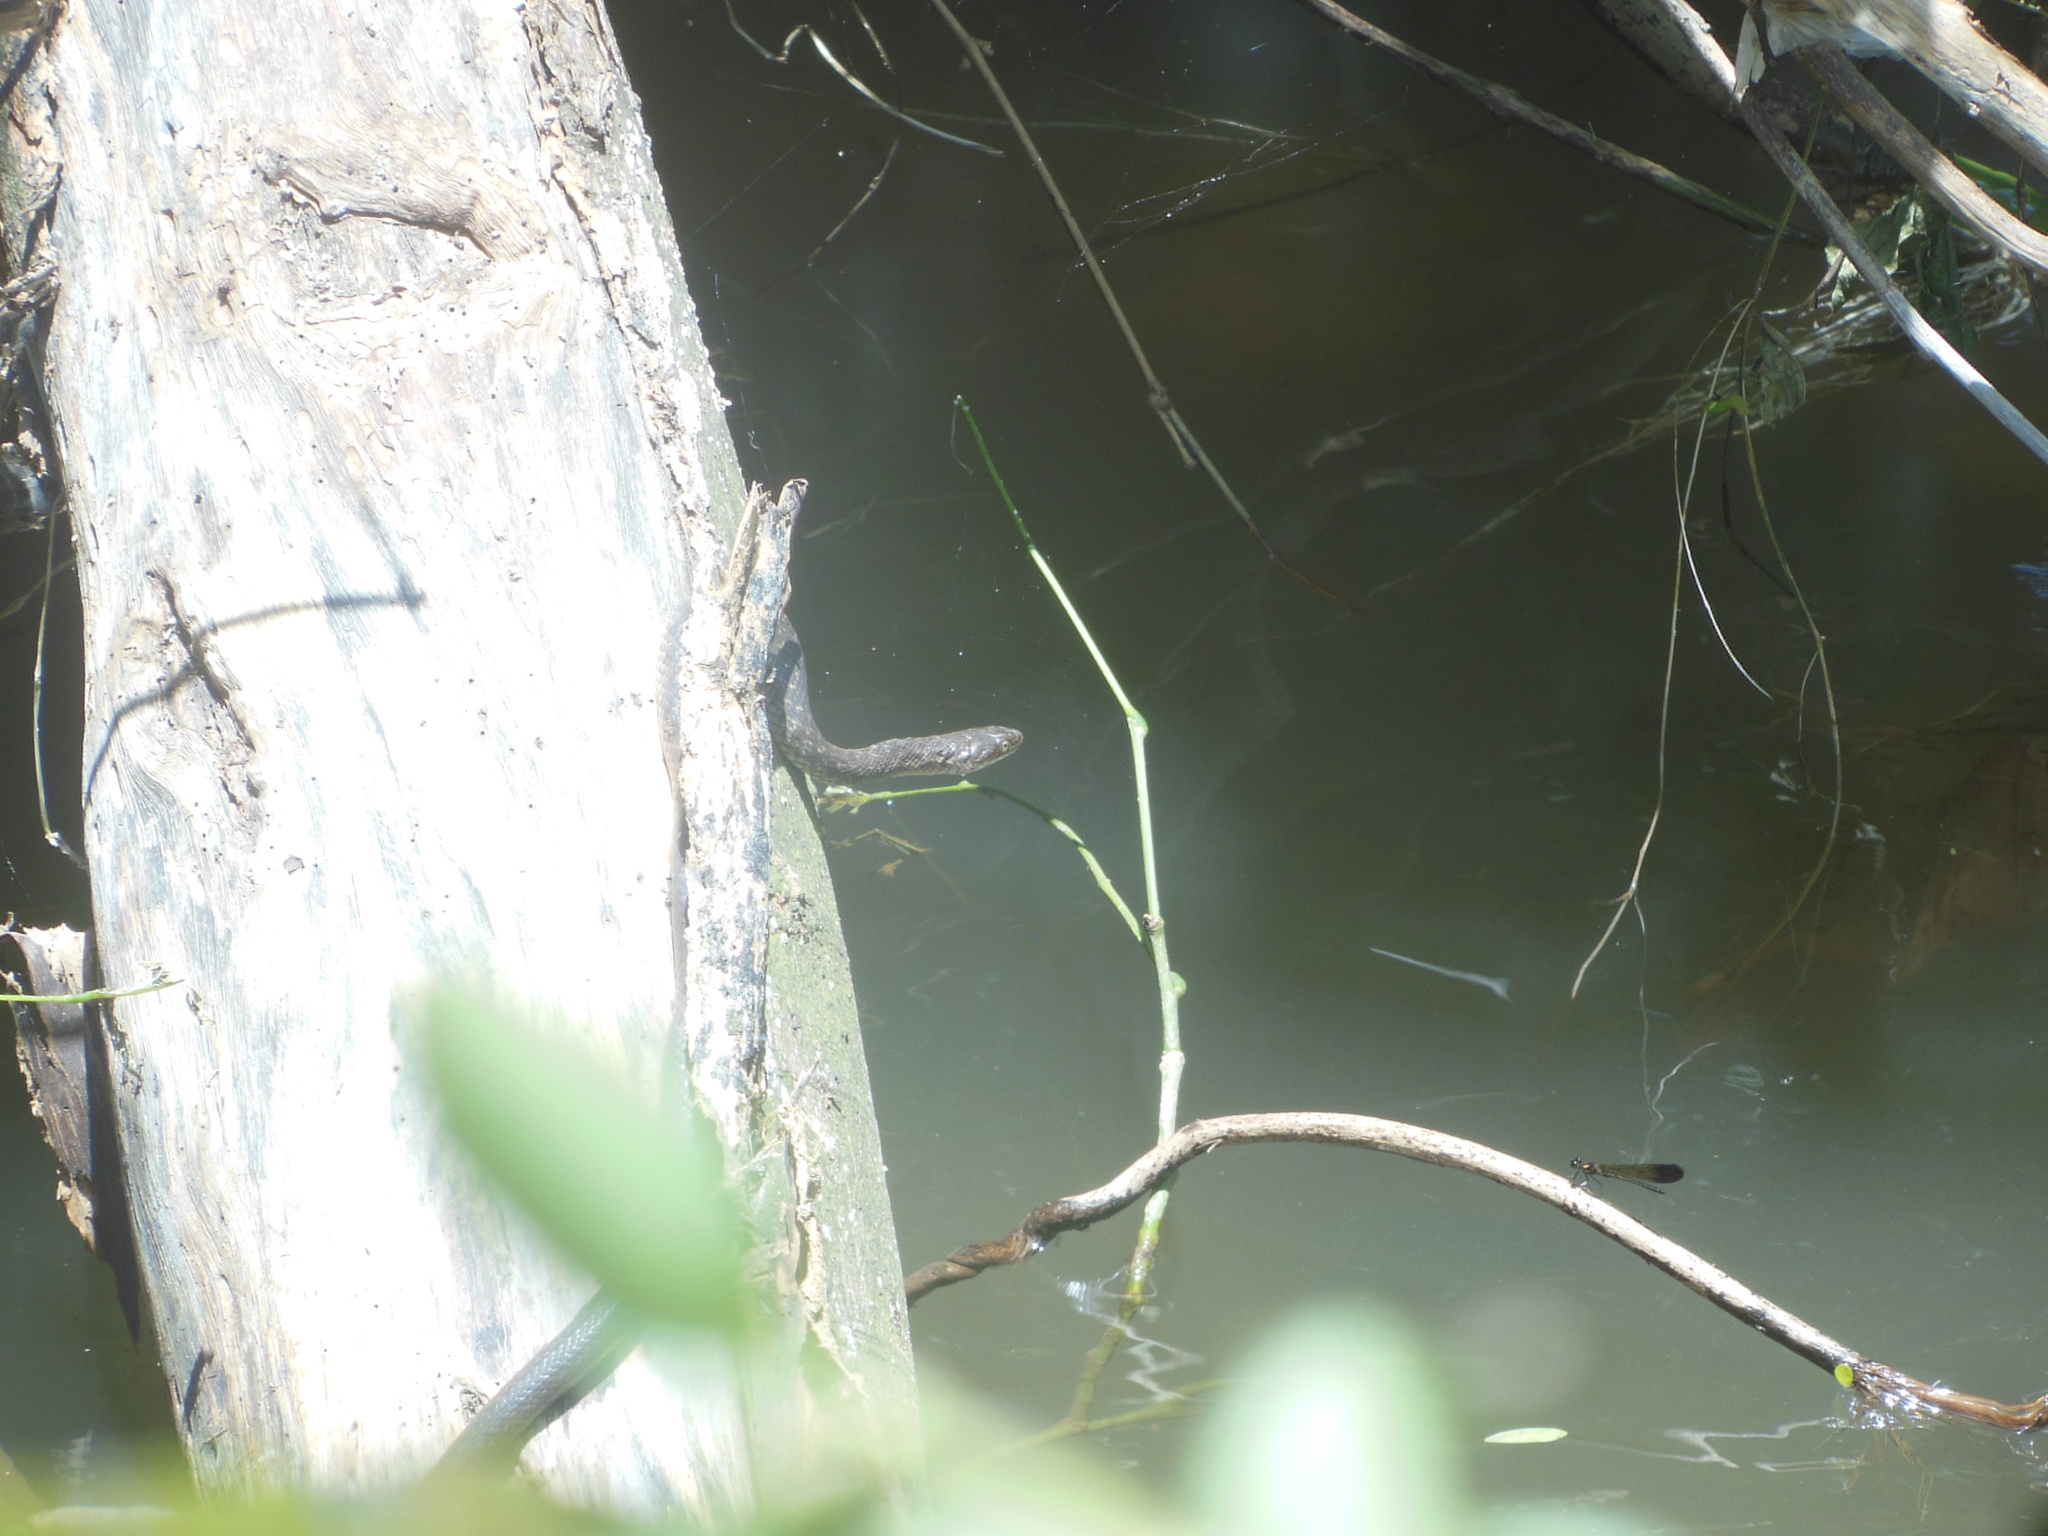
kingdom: Animalia
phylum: Chordata
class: Squamata
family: Colubridae
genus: Fowlea
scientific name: Fowlea piscator
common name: Asiatic water snake
